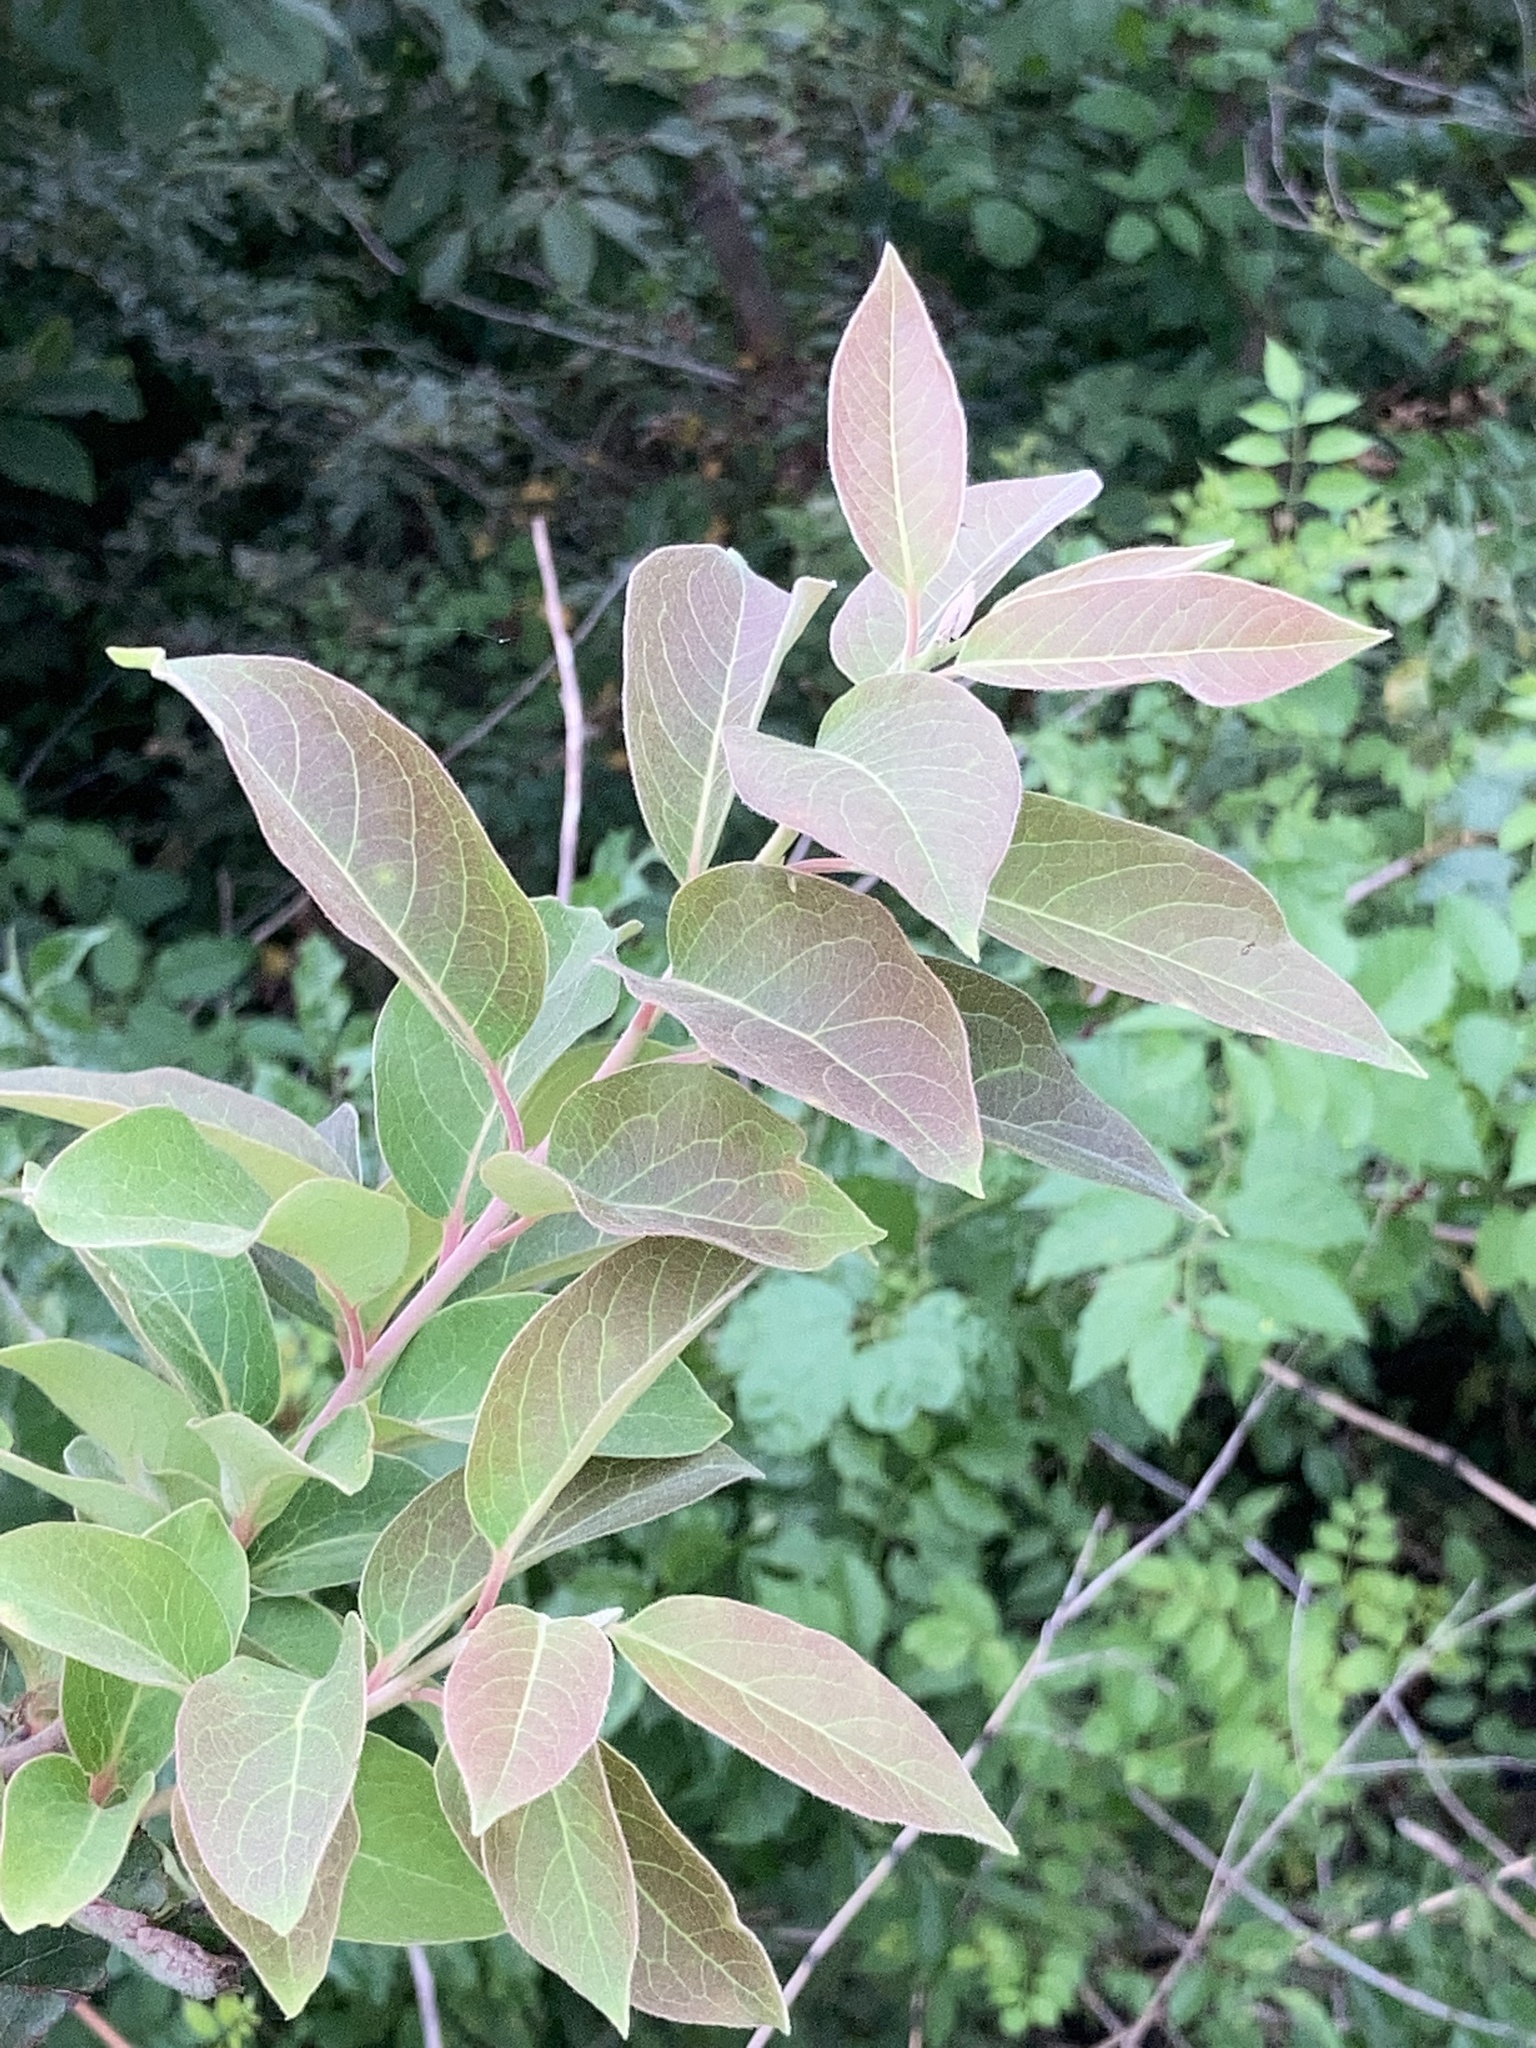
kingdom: Plantae
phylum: Tracheophyta
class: Magnoliopsida
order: Ericales
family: Ebenaceae
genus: Diospyros
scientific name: Diospyros virginiana
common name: Persimmon
